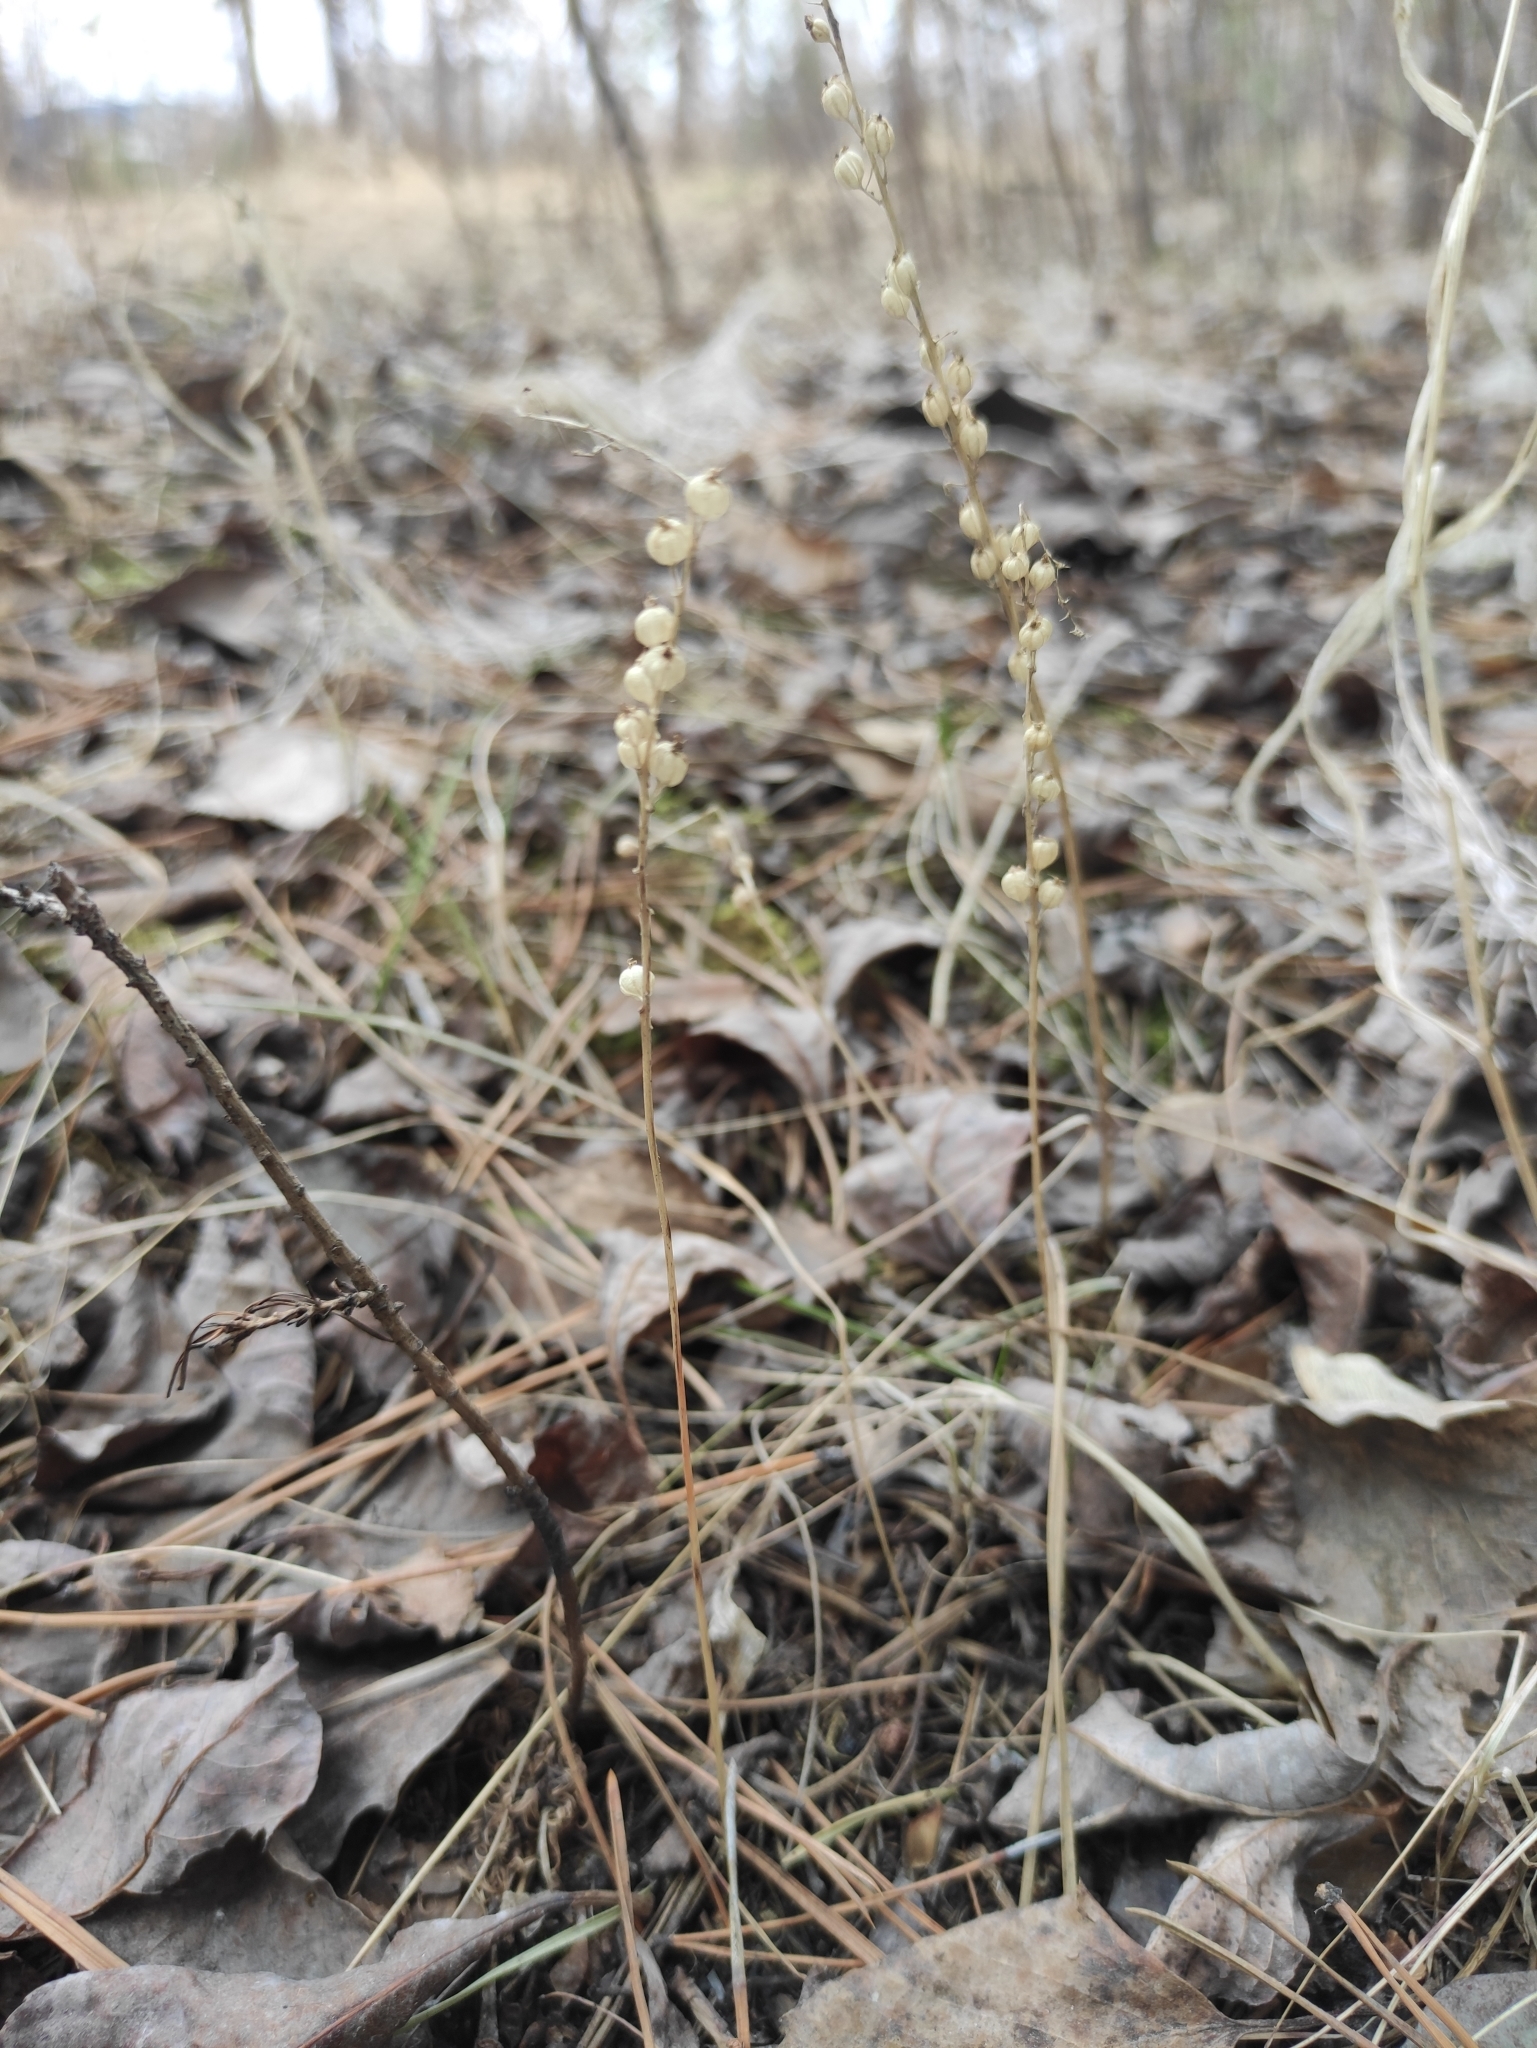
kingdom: Plantae
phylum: Tracheophyta
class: Liliopsida
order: Asparagales
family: Orchidaceae
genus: Malaxis
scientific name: Malaxis monophyllos
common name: White adder's-mouth
